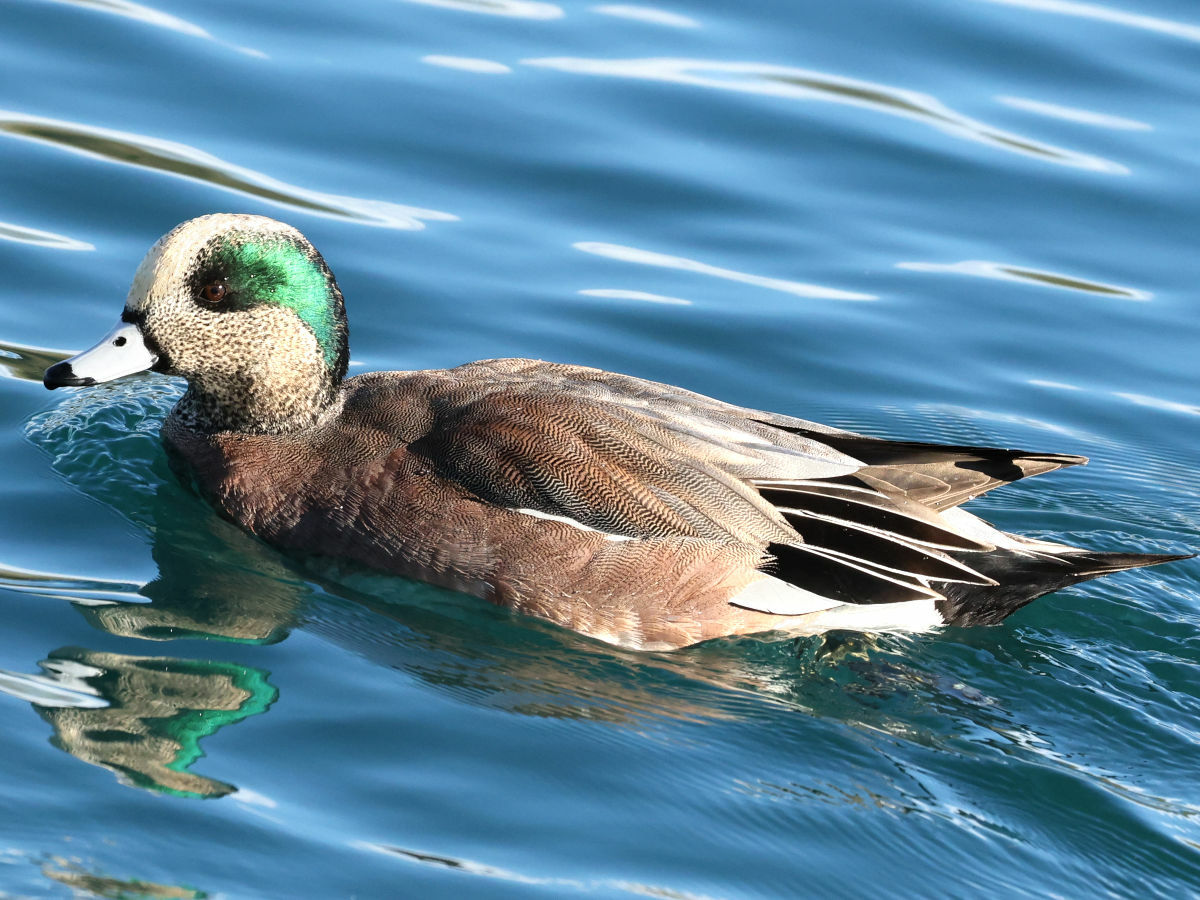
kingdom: Animalia
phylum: Chordata
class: Aves
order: Anseriformes
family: Anatidae
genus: Mareca
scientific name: Mareca americana
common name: American wigeon
